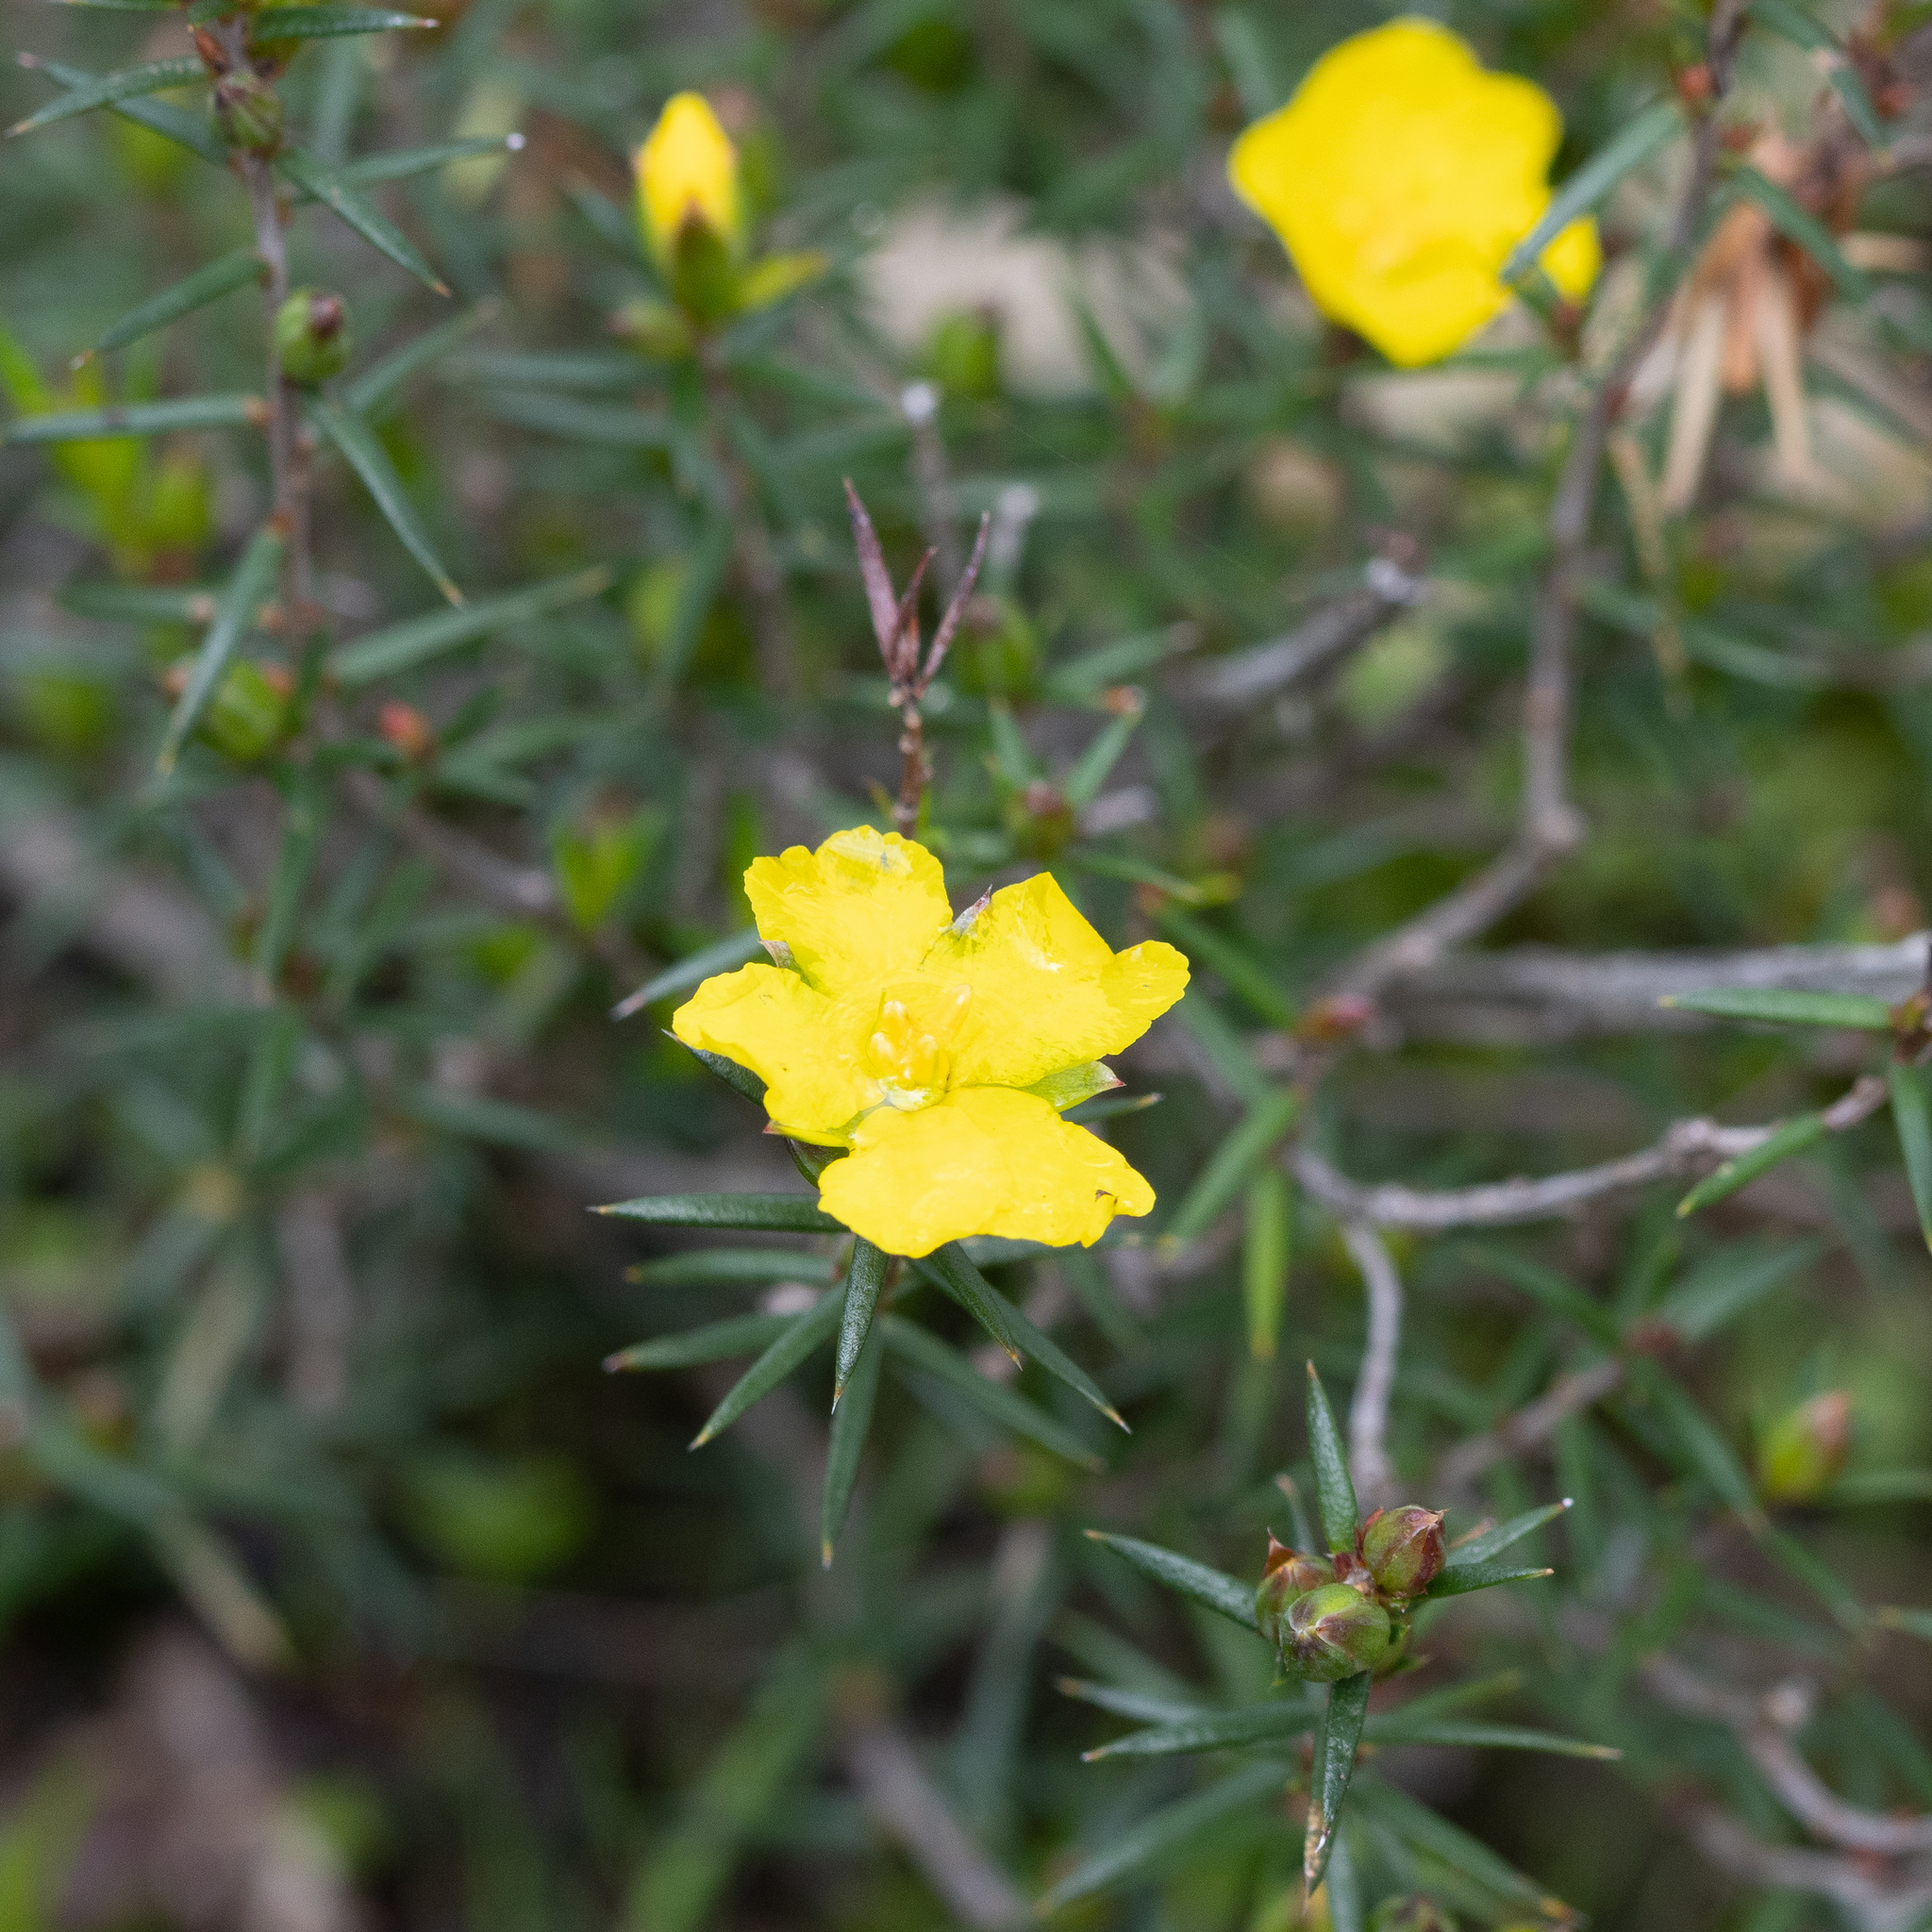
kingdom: Plantae
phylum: Tracheophyta
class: Magnoliopsida
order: Dilleniales
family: Dilleniaceae
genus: Hibbertia
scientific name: Hibbertia exutiacies
